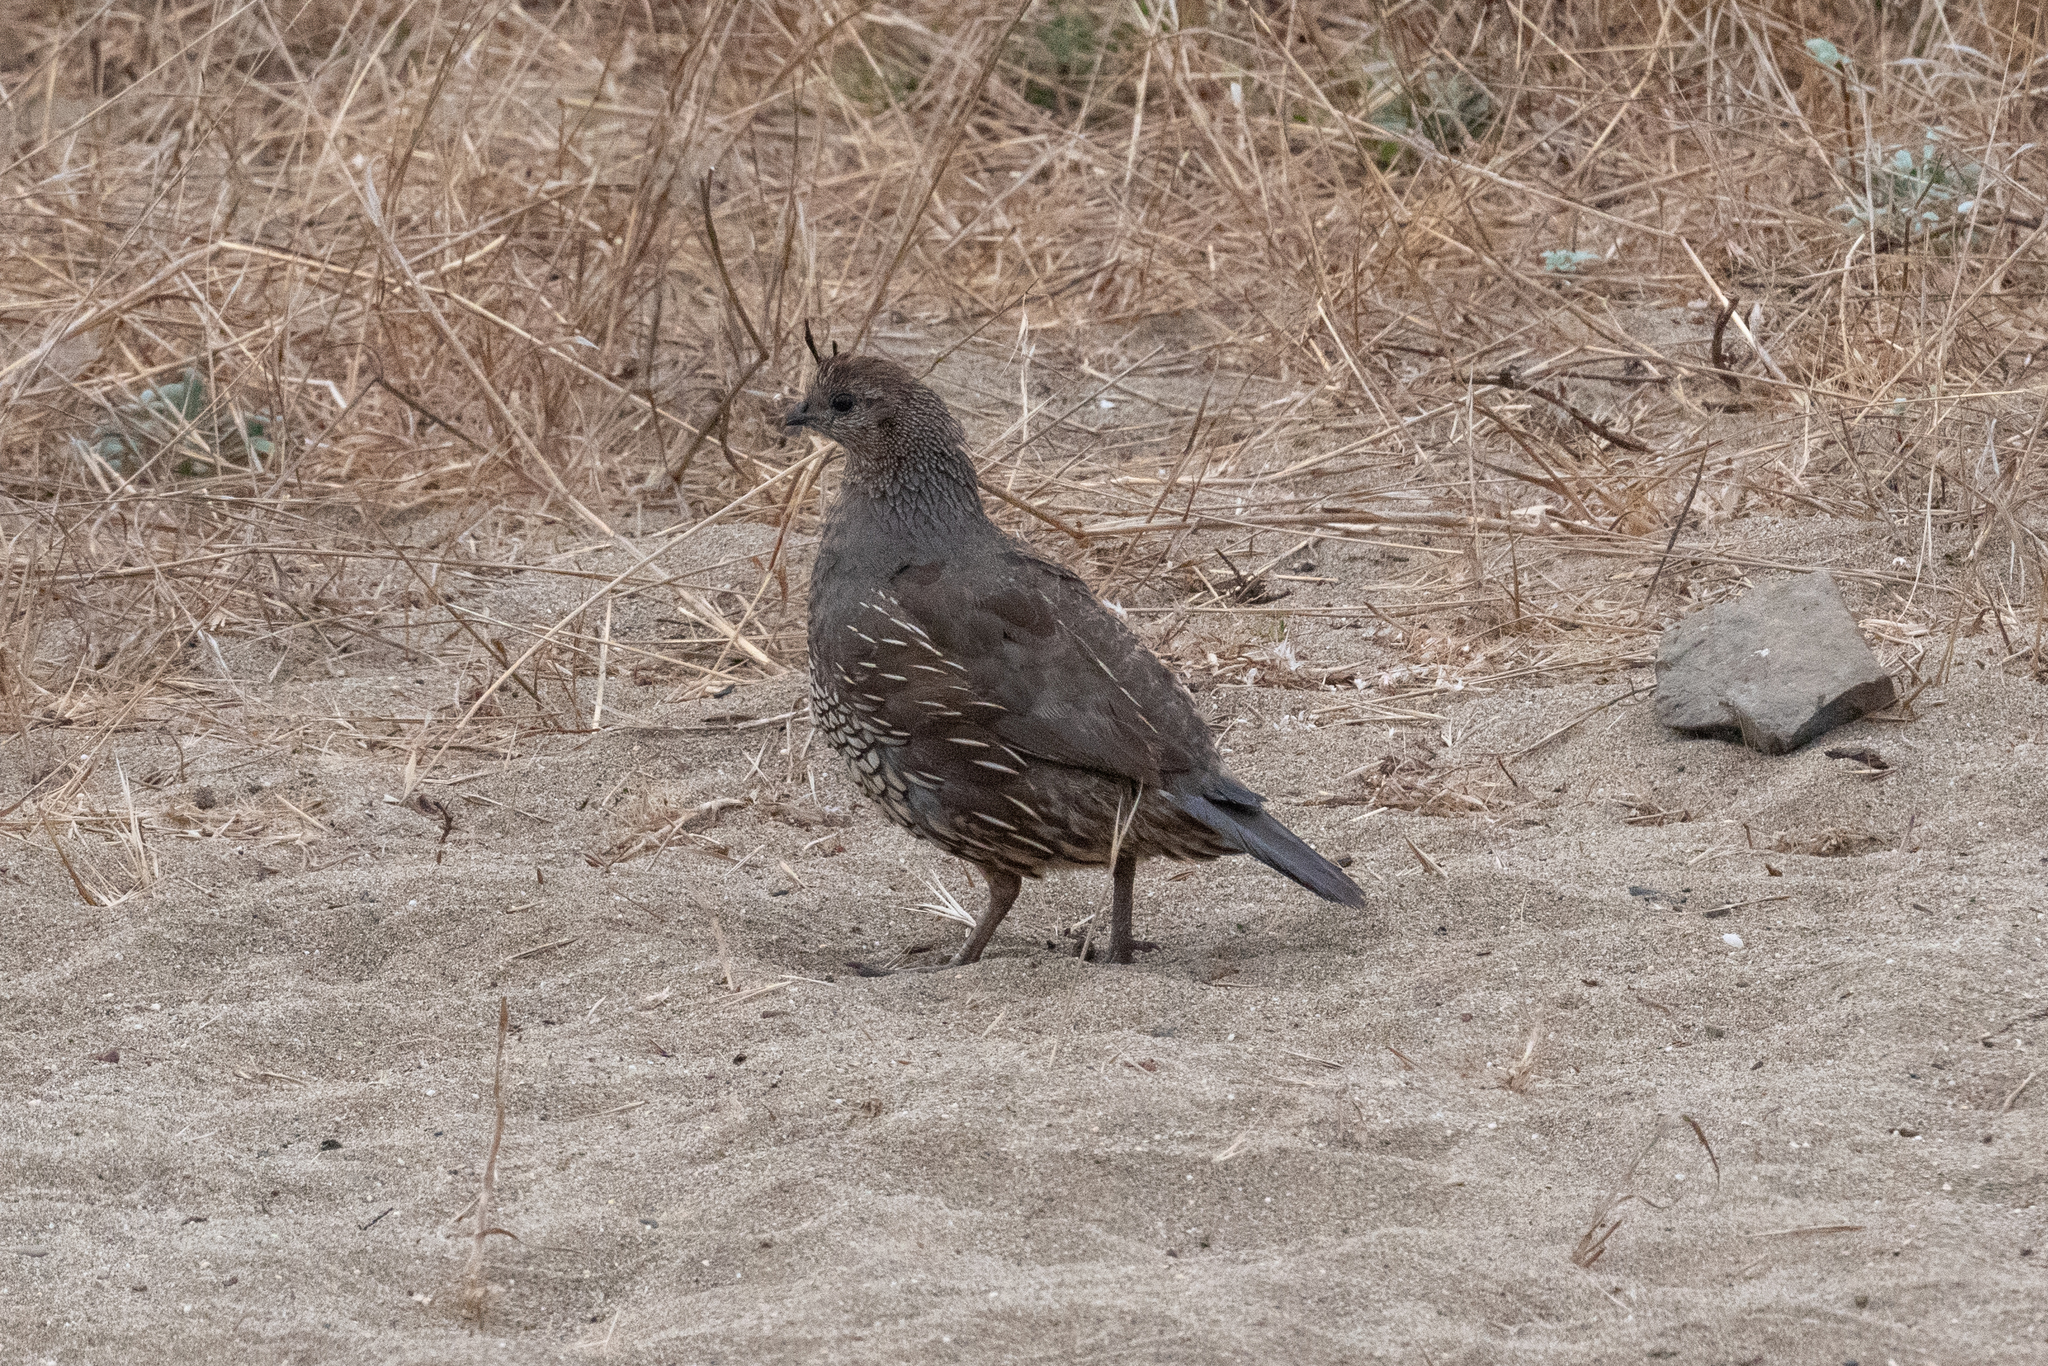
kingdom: Animalia
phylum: Chordata
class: Aves
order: Galliformes
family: Odontophoridae
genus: Callipepla
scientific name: Callipepla californica
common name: California quail
